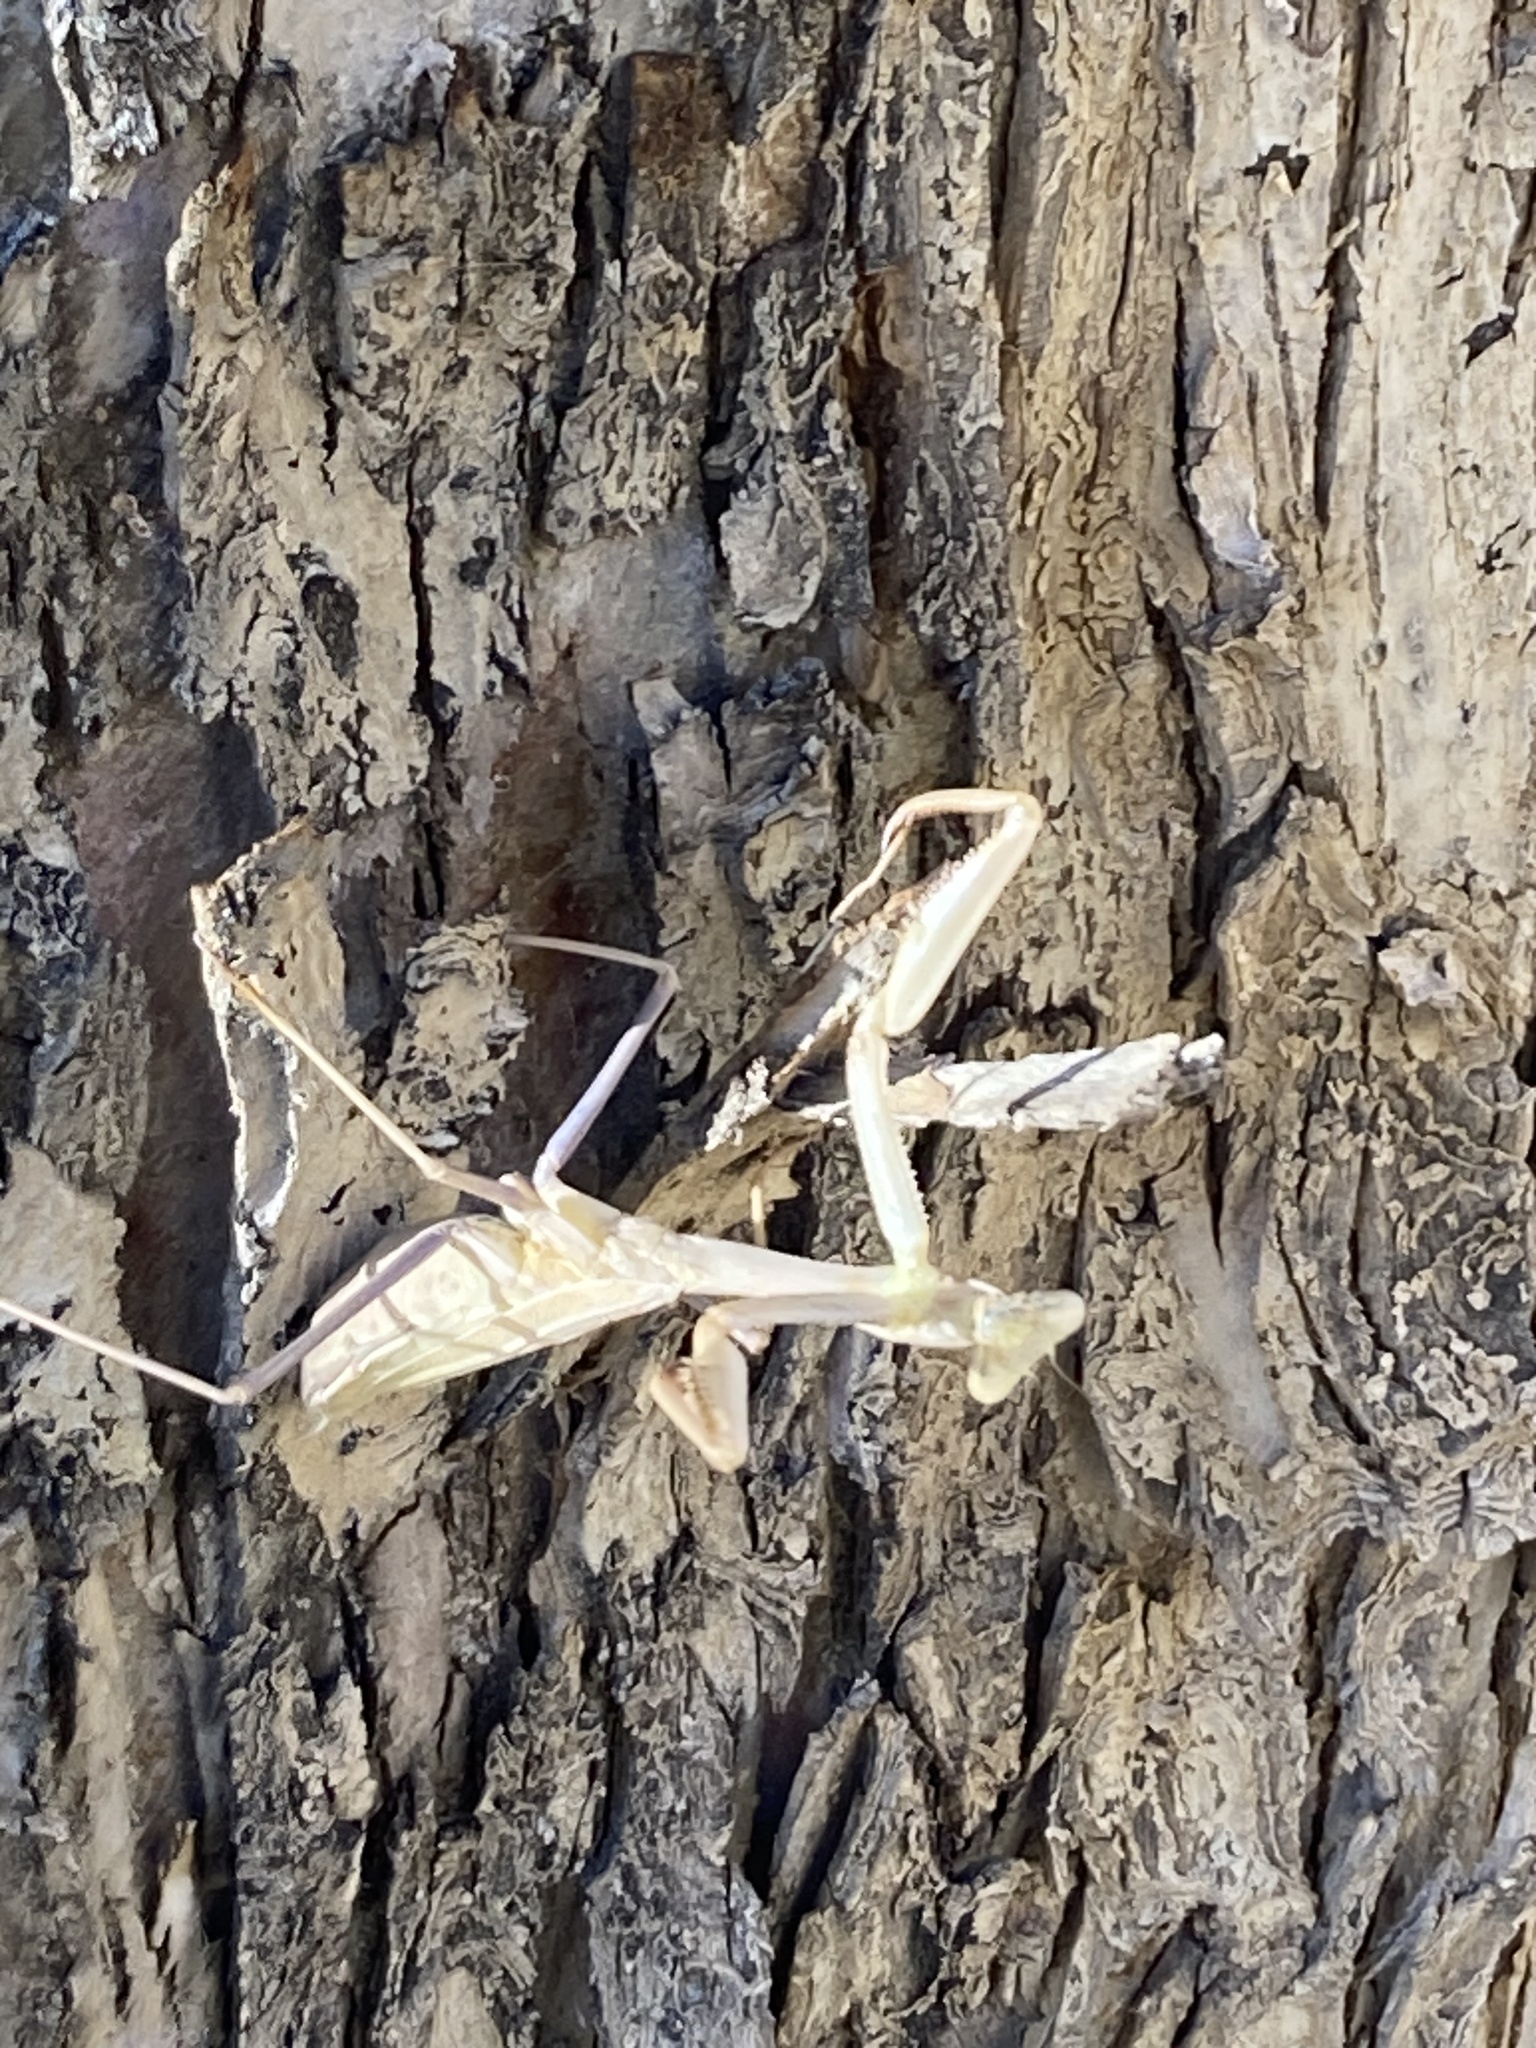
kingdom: Animalia
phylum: Arthropoda
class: Insecta
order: Mantodea
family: Mantidae
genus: Stagmomantis
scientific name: Stagmomantis limbata
